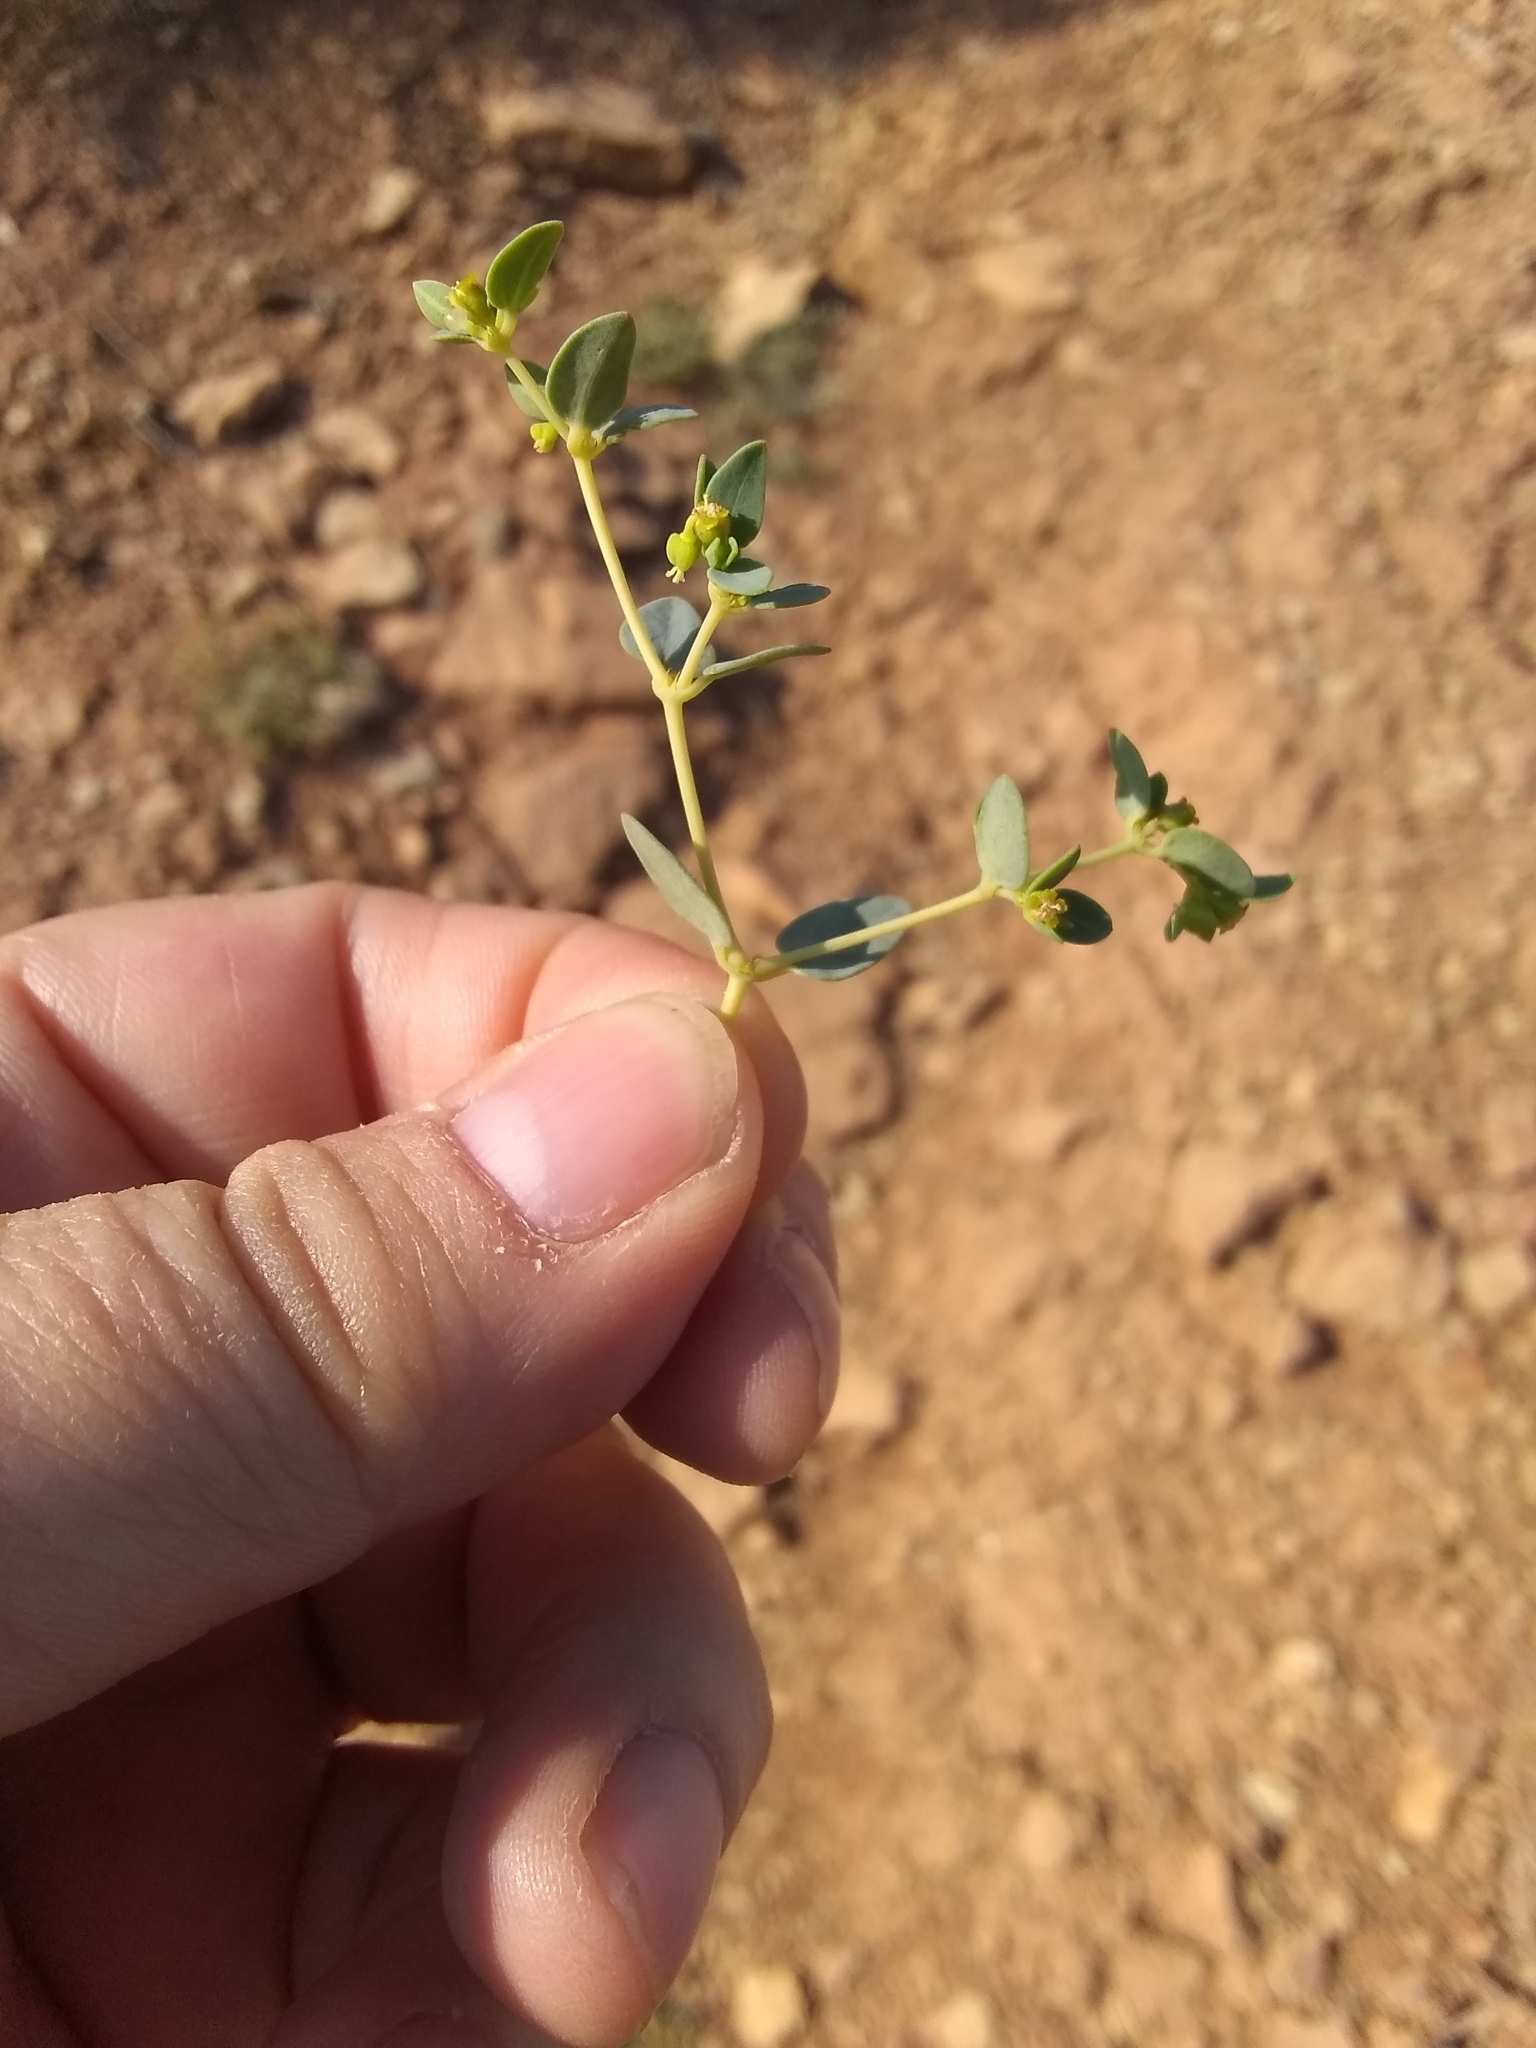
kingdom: Plantae
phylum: Tracheophyta
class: Magnoliopsida
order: Malpighiales
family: Euphorbiaceae
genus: Euphorbia
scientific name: Euphorbia fendleri
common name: Fendler's euphorbia
